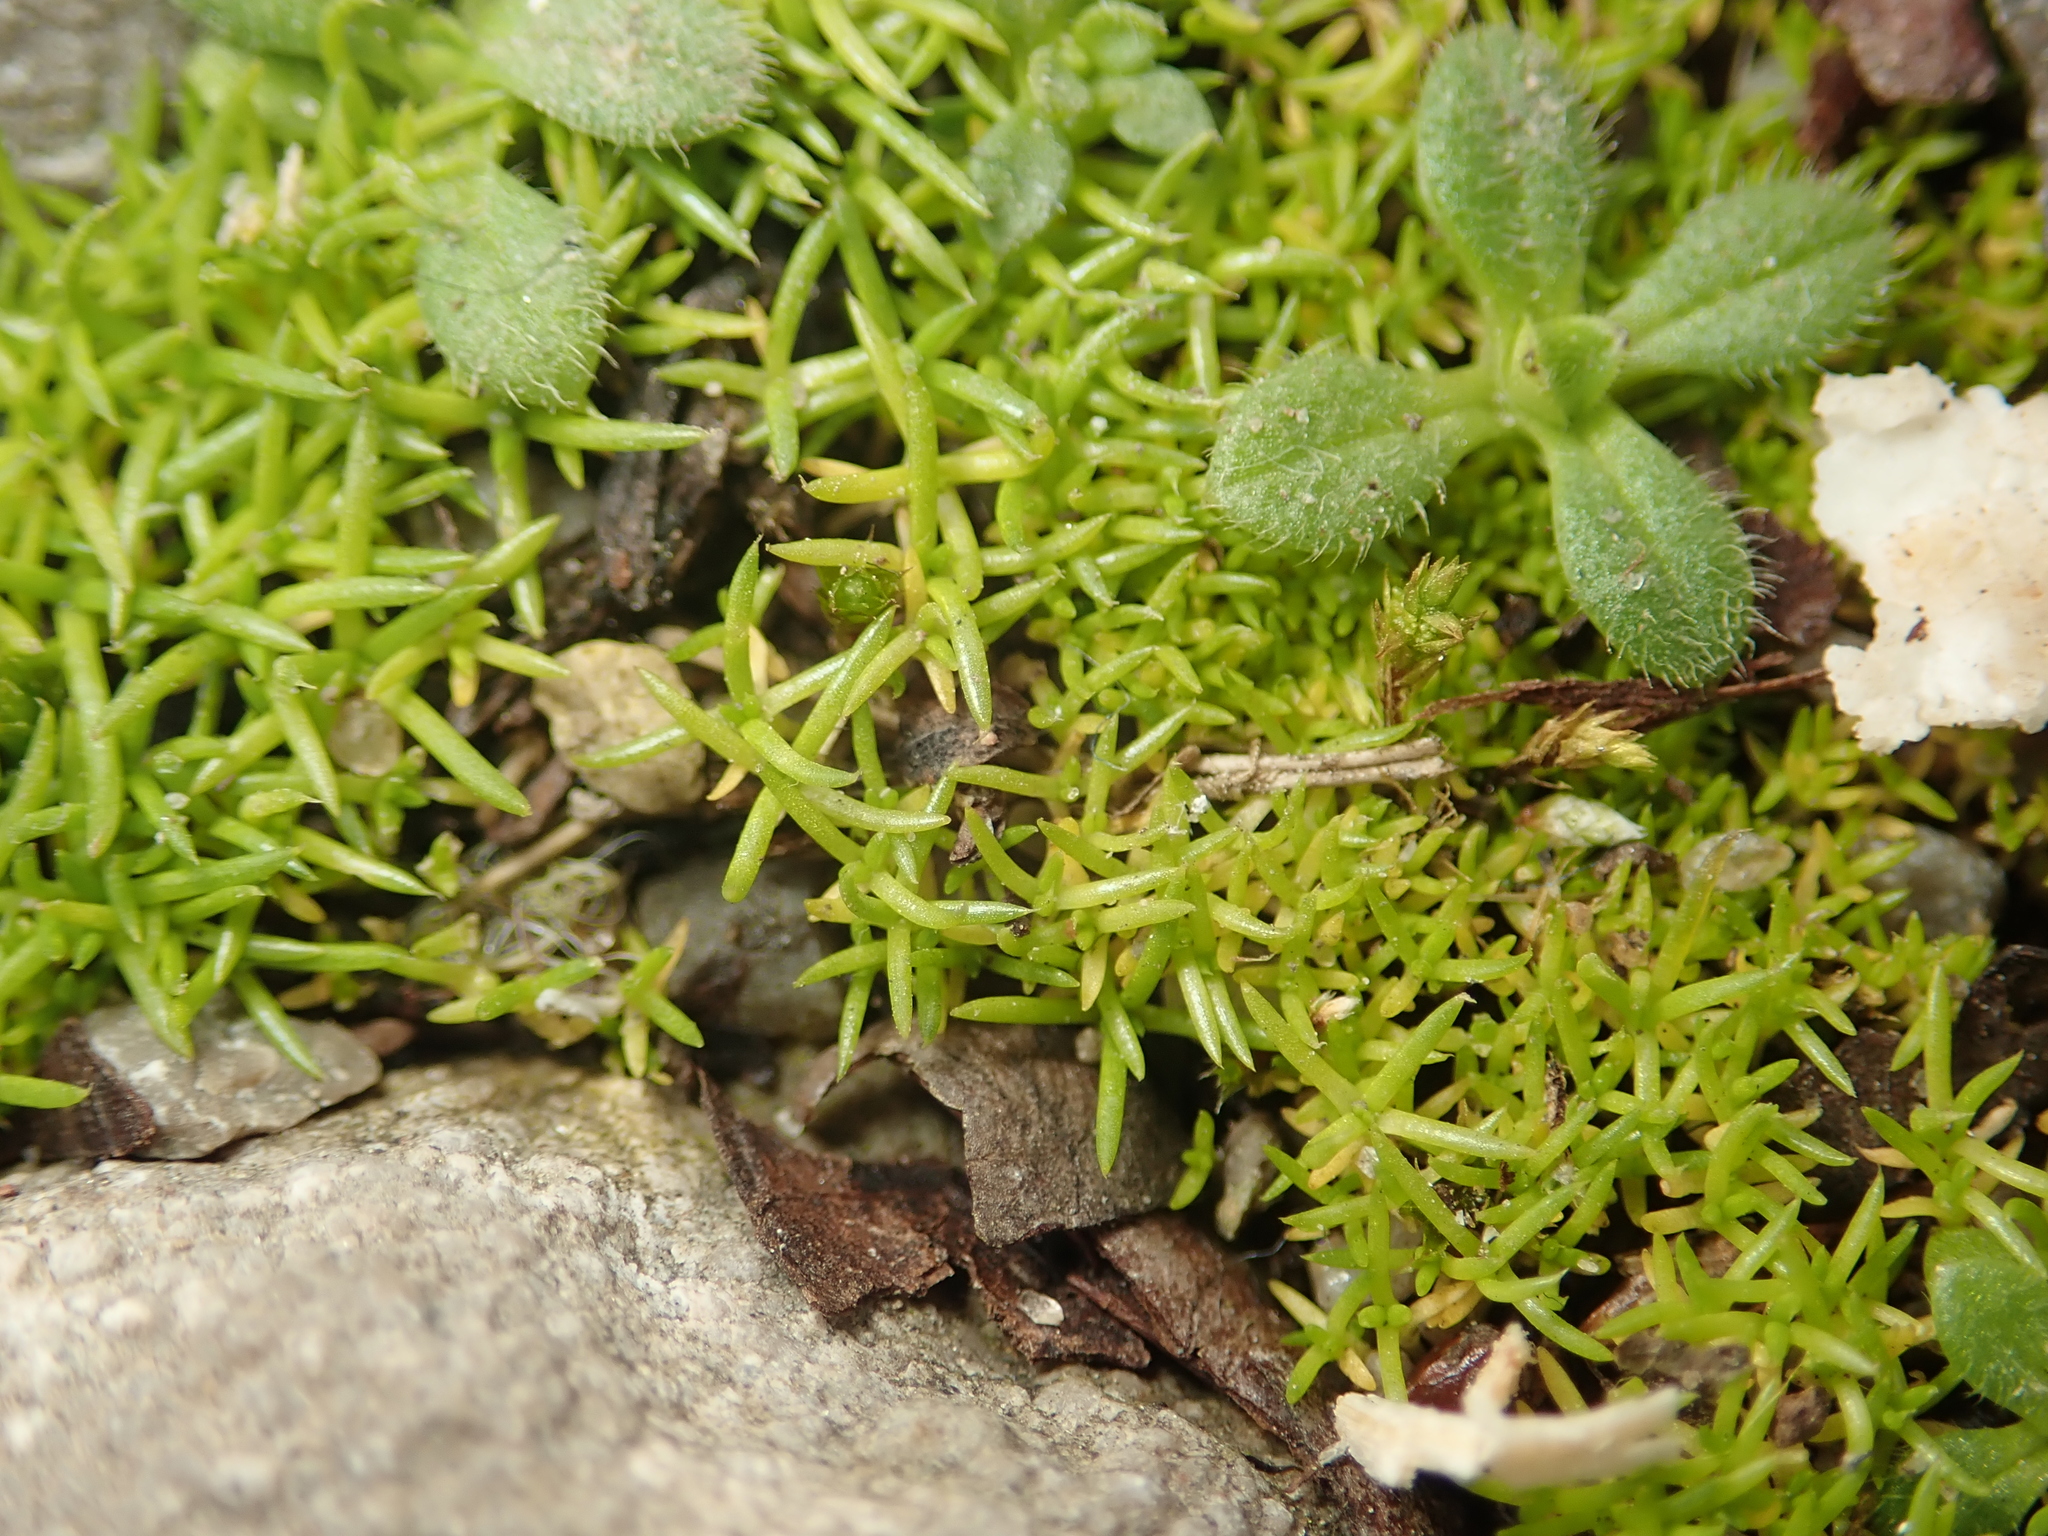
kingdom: Plantae
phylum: Tracheophyta
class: Magnoliopsida
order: Caryophyllales
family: Caryophyllaceae
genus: Sagina
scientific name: Sagina procumbens
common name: Procumbent pearlwort
